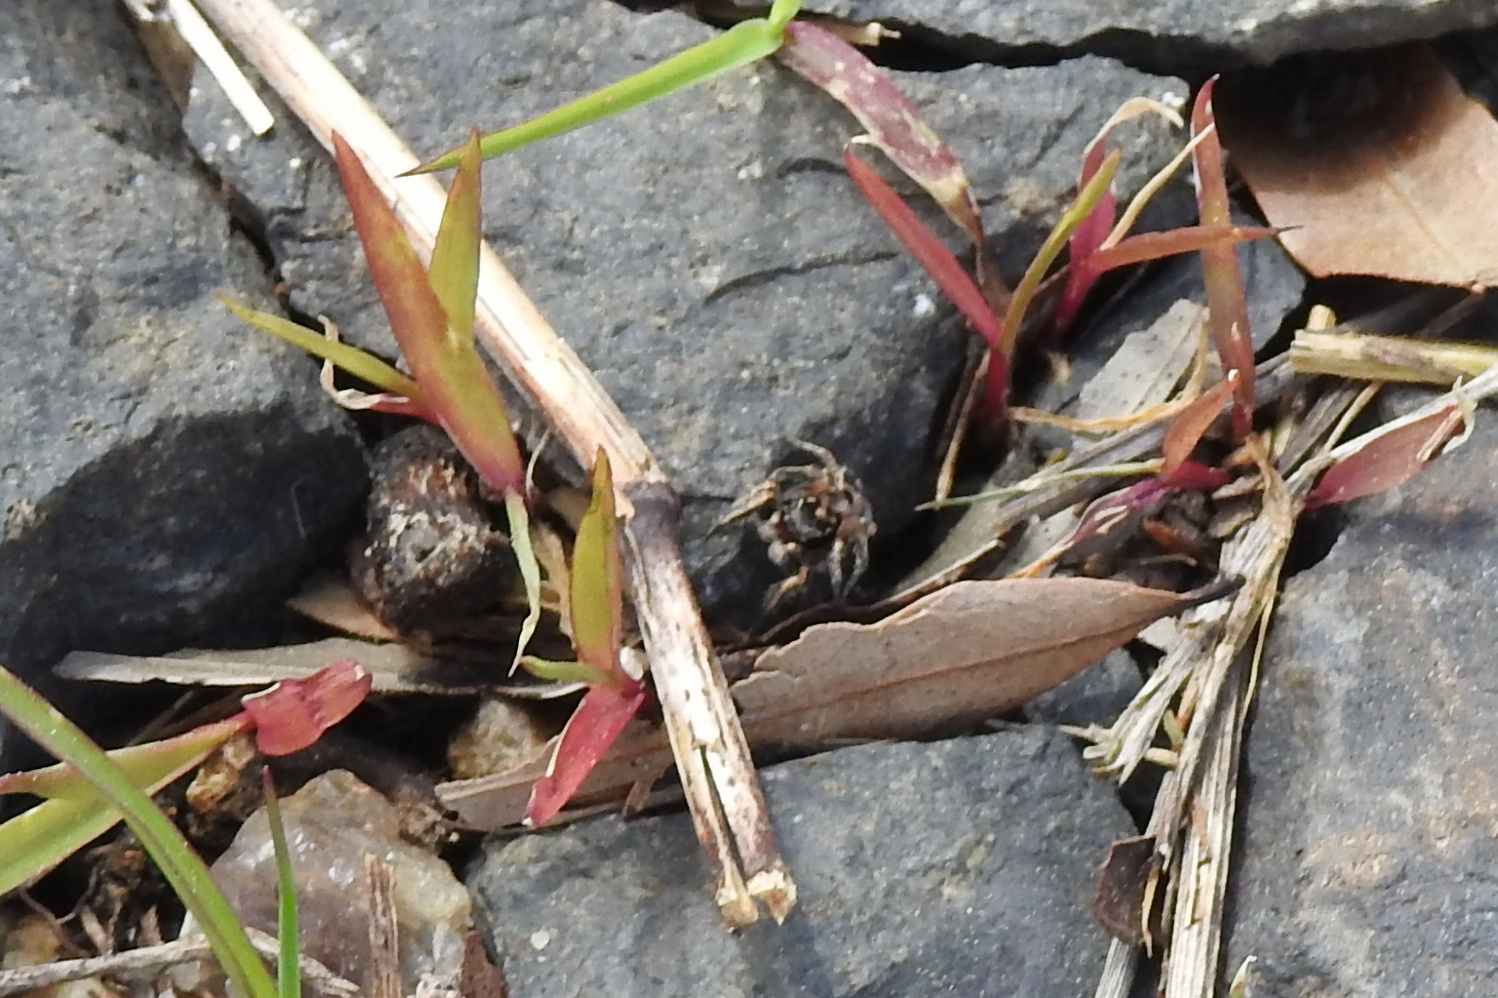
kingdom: Animalia
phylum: Arthropoda
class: Arachnida
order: Araneae
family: Salticidae
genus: Habronattus
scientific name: Habronattus coecatus
